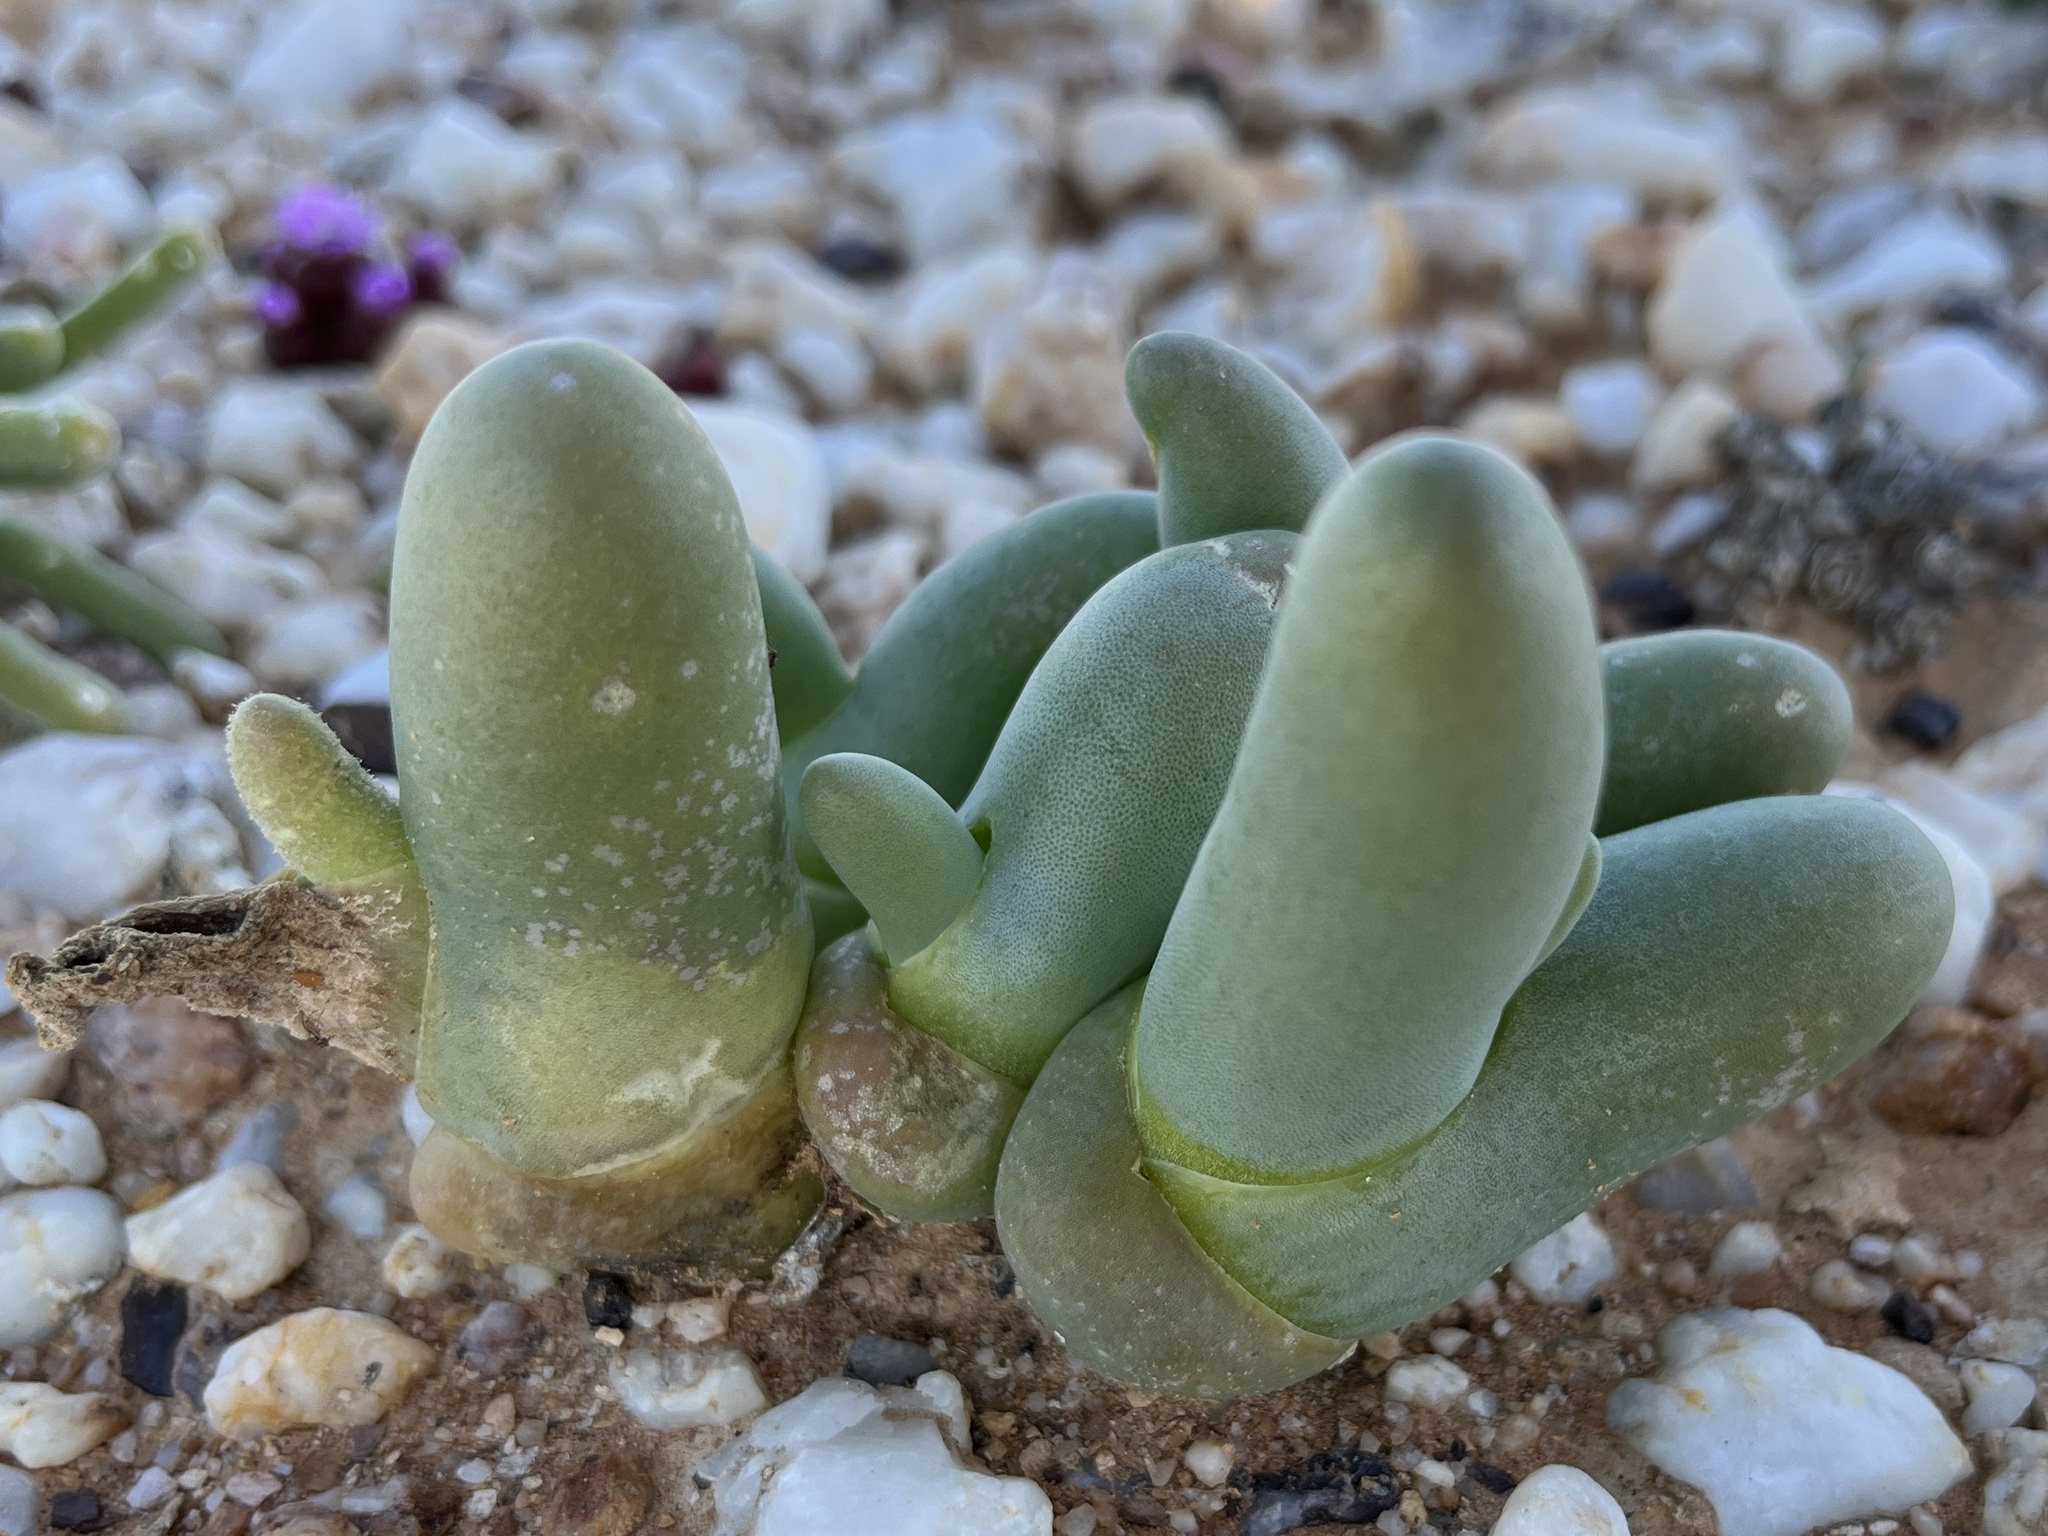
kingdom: Plantae
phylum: Tracheophyta
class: Magnoliopsida
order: Caryophyllales
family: Aizoaceae
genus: Mesembryanthemum
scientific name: Mesembryanthemum digitatum
